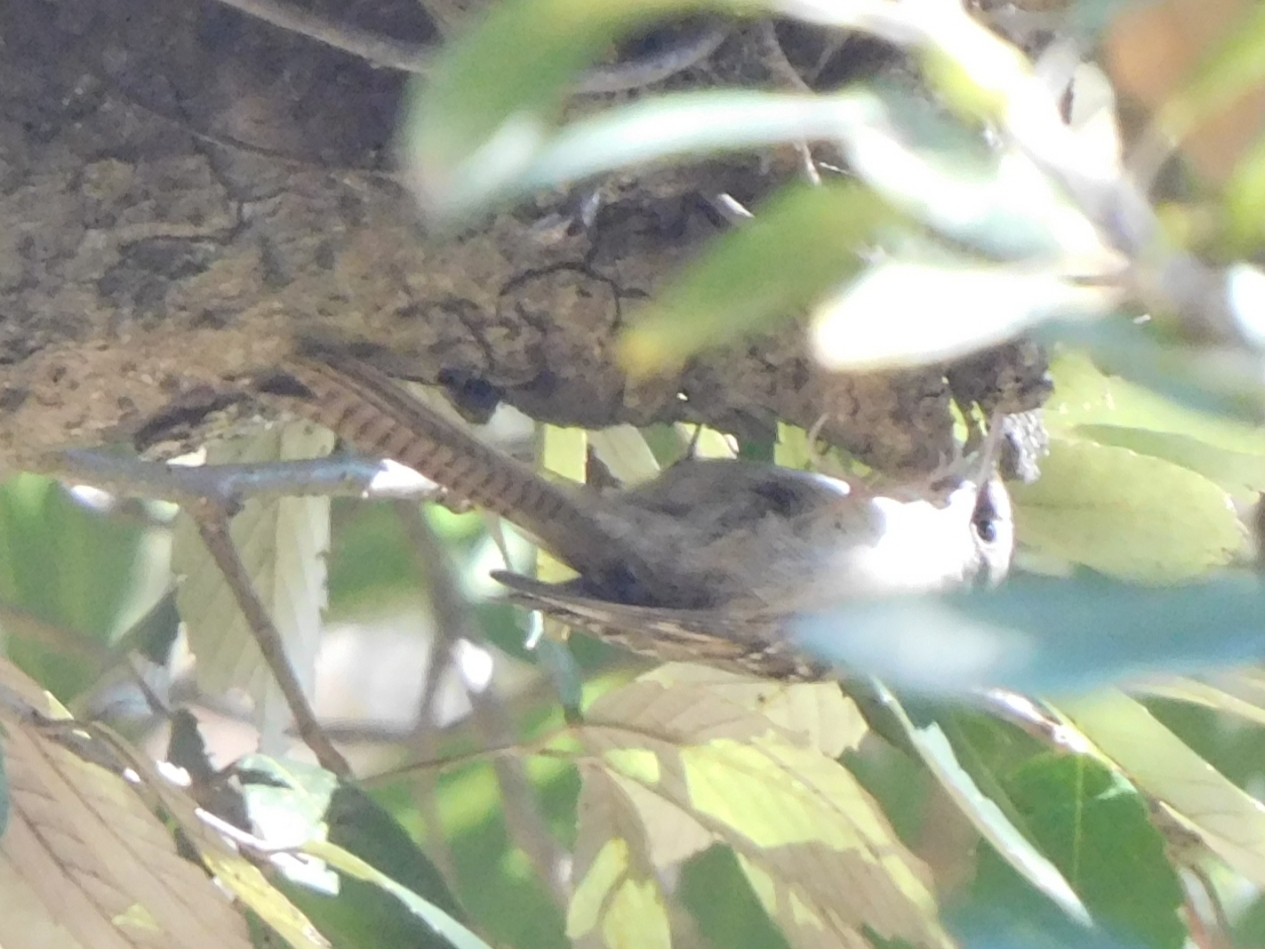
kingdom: Animalia
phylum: Chordata
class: Aves
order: Passeriformes
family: Certhiidae
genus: Certhia
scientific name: Certhia himalayana
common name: Bar-tailed treecreeper
